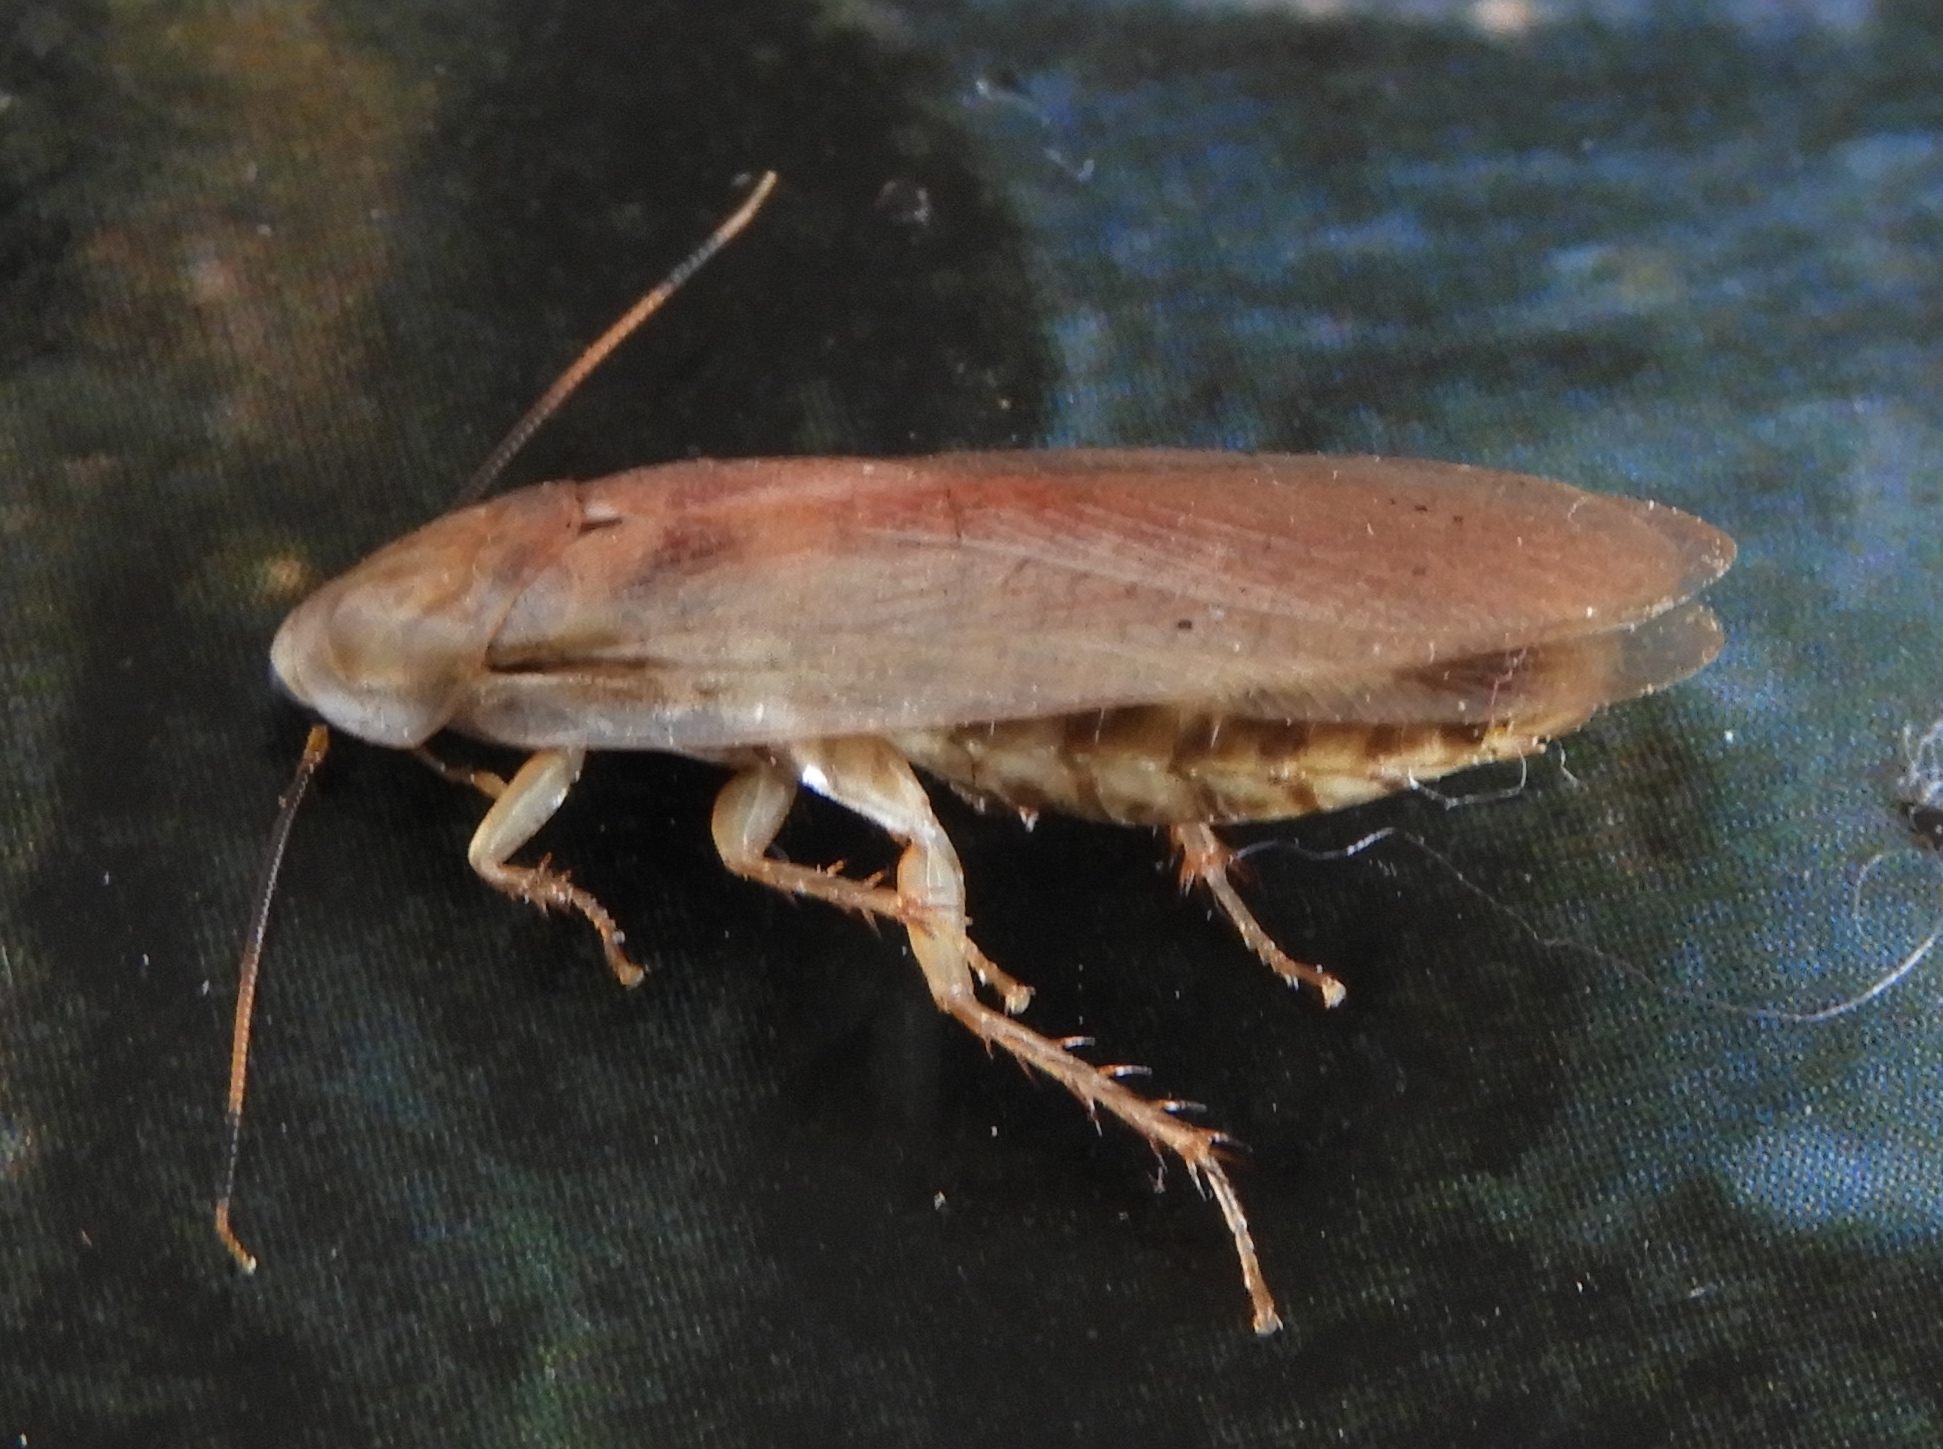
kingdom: Animalia
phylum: Arthropoda
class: Insecta
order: Blattodea
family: Blaberidae
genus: Panchlora
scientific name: Panchlora cahita
